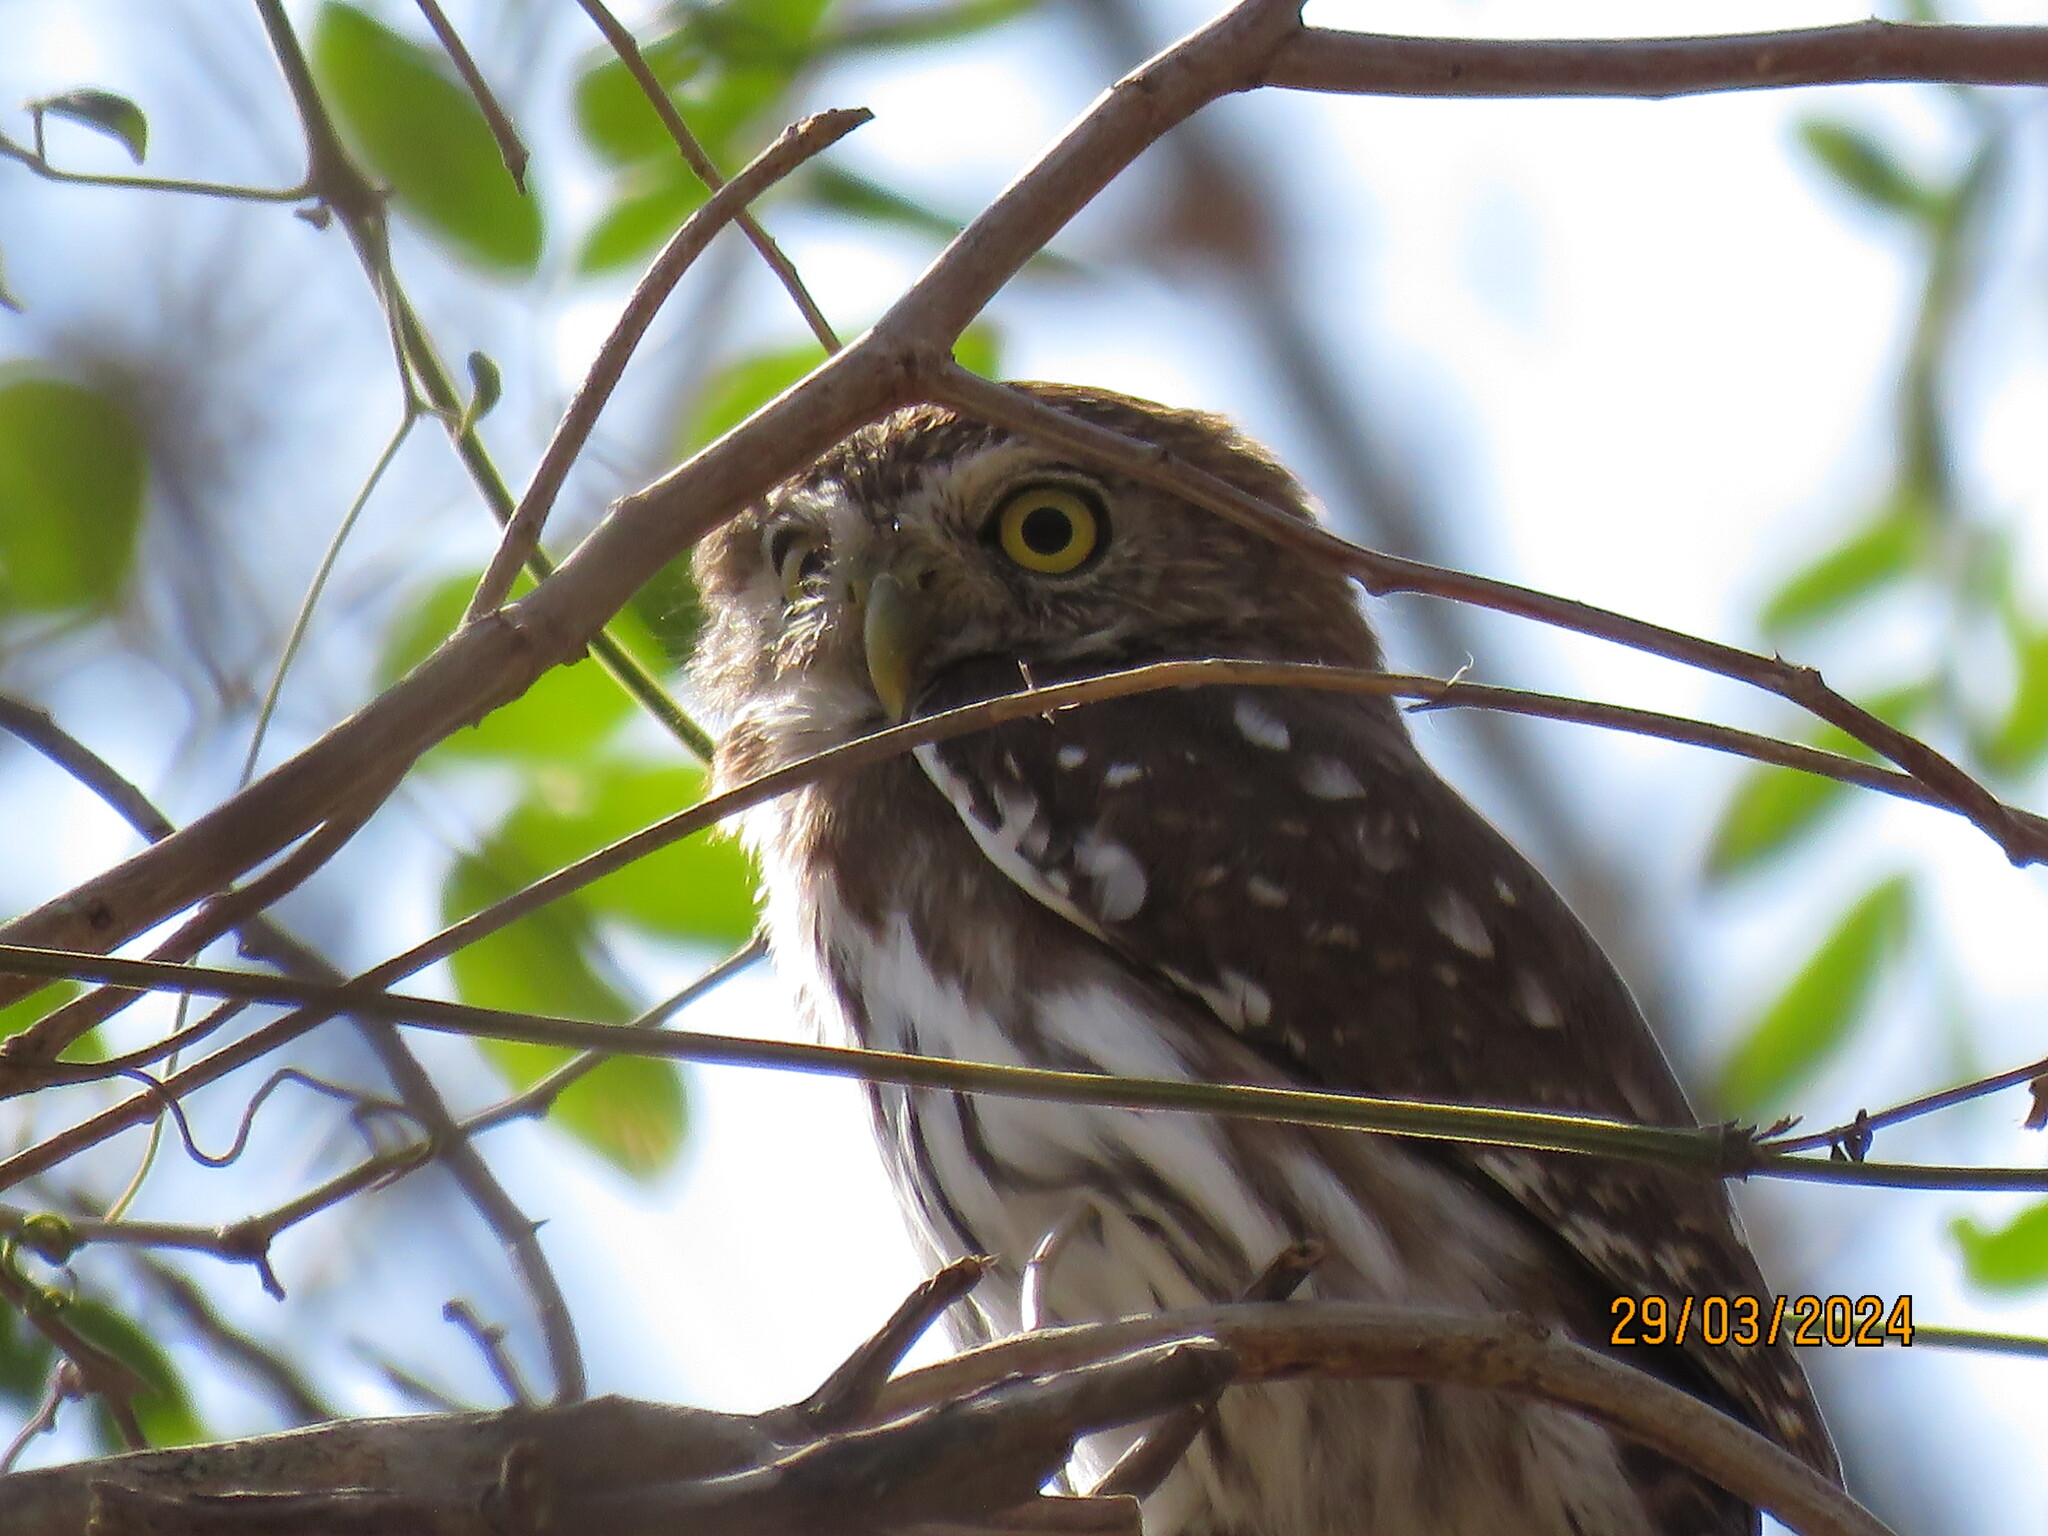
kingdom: Animalia
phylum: Chordata
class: Aves
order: Strigiformes
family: Strigidae
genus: Glaucidium
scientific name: Glaucidium brasilianum
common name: Ferruginous pygmy-owl
